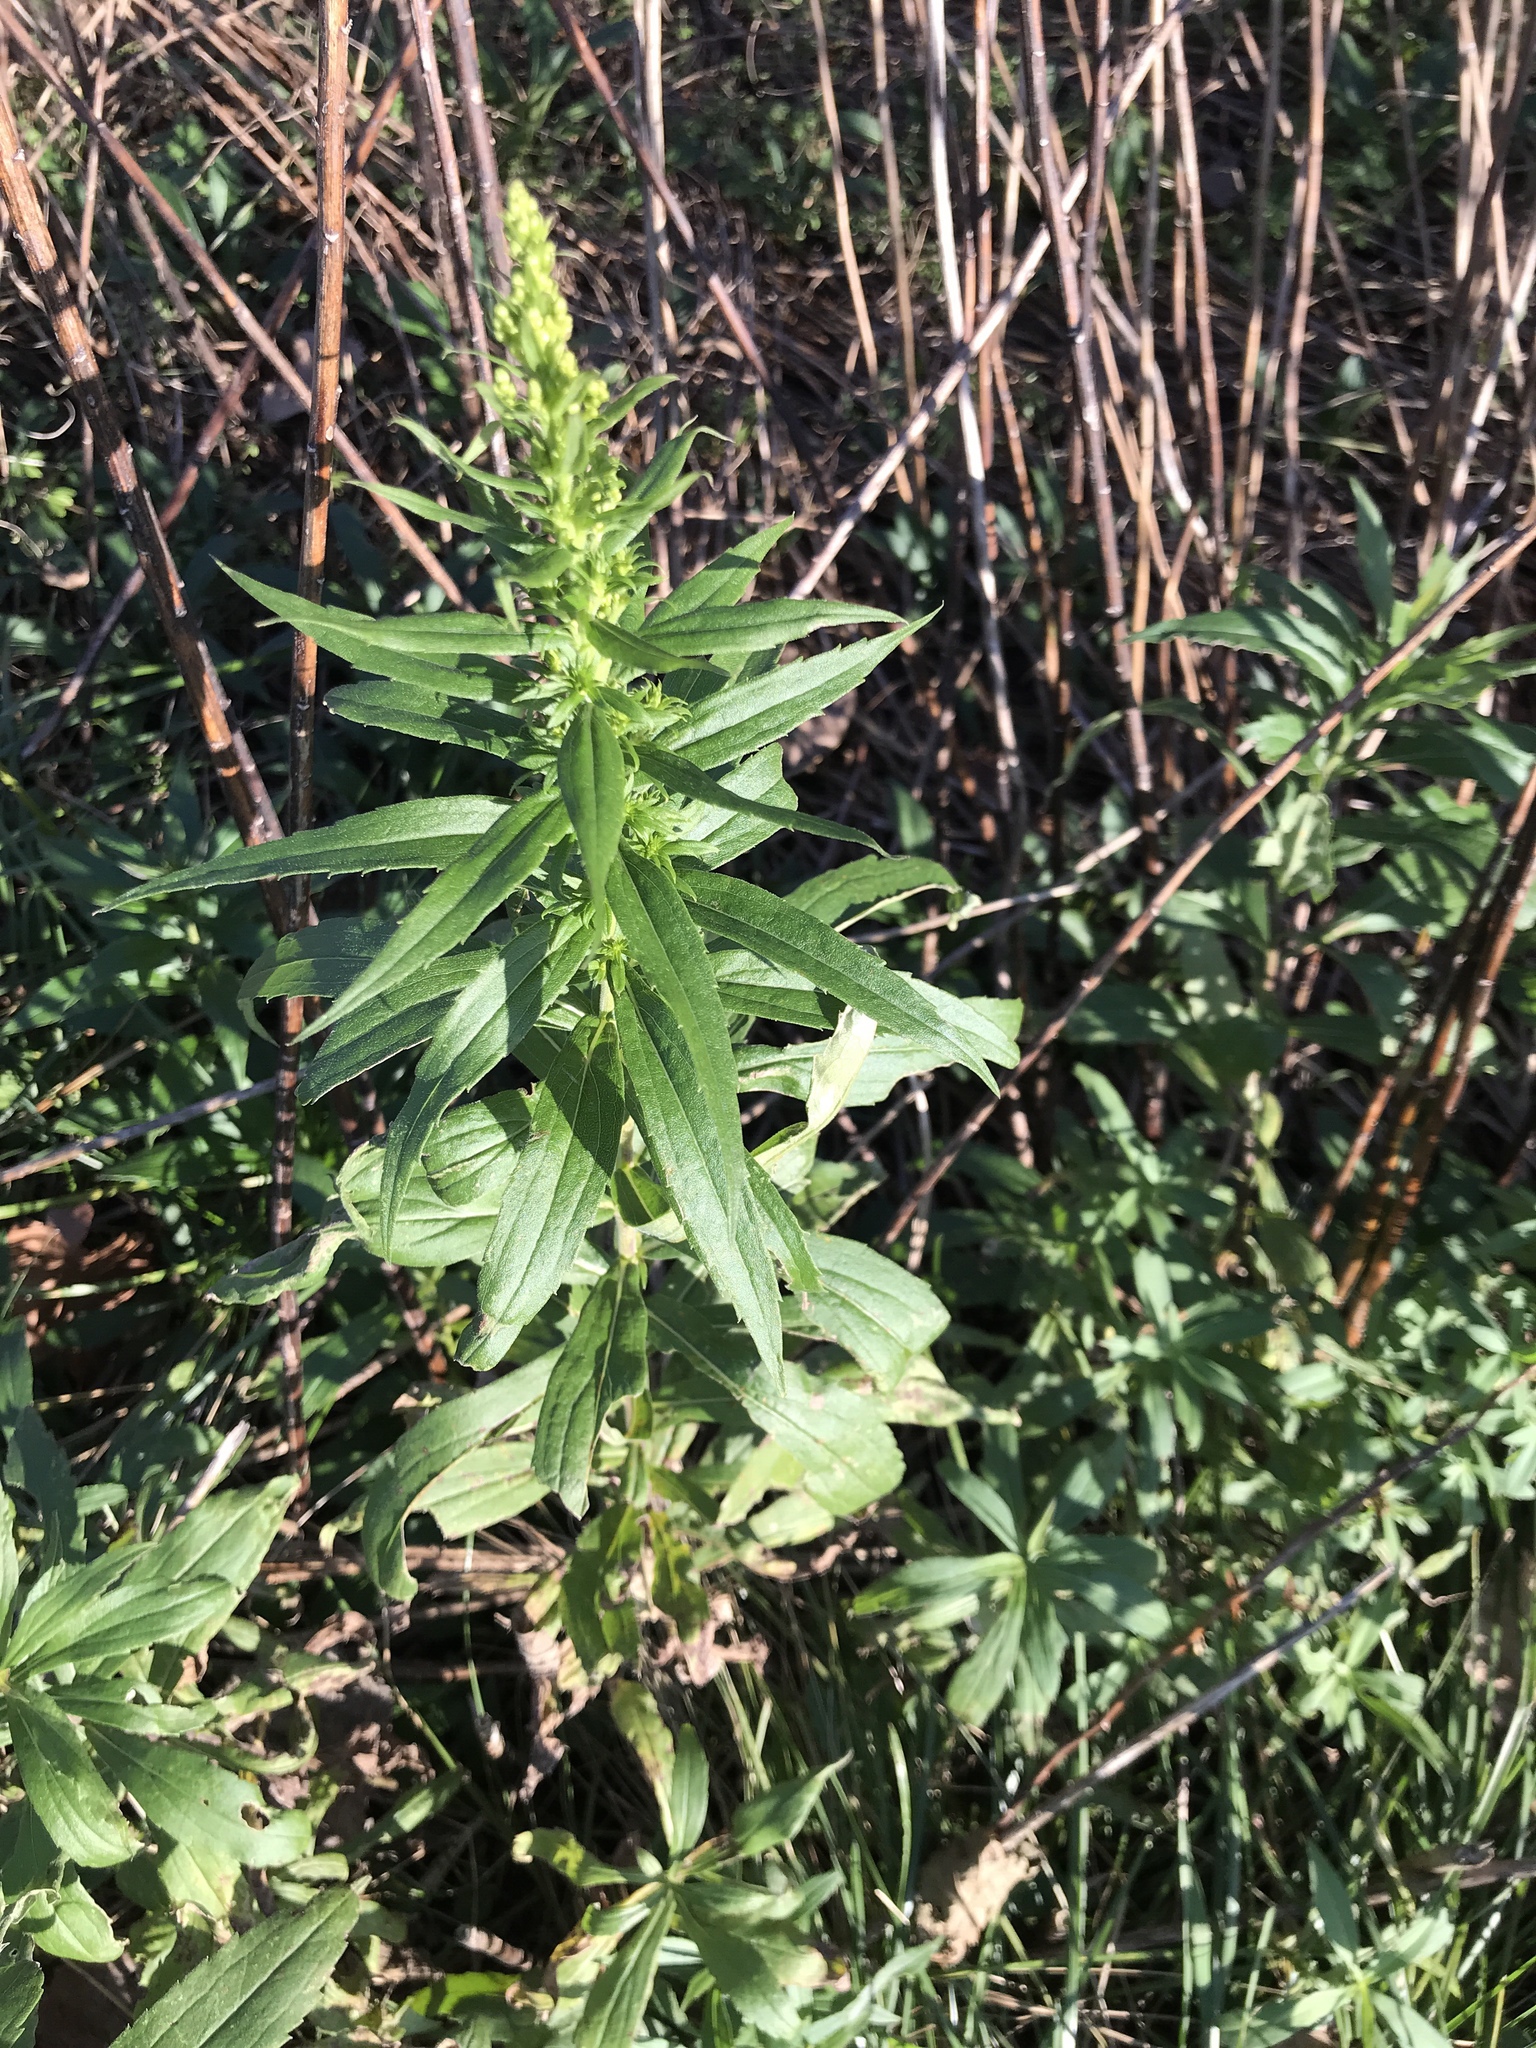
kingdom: Plantae
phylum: Tracheophyta
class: Magnoliopsida
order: Asterales
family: Asteraceae
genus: Solidago
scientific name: Solidago
